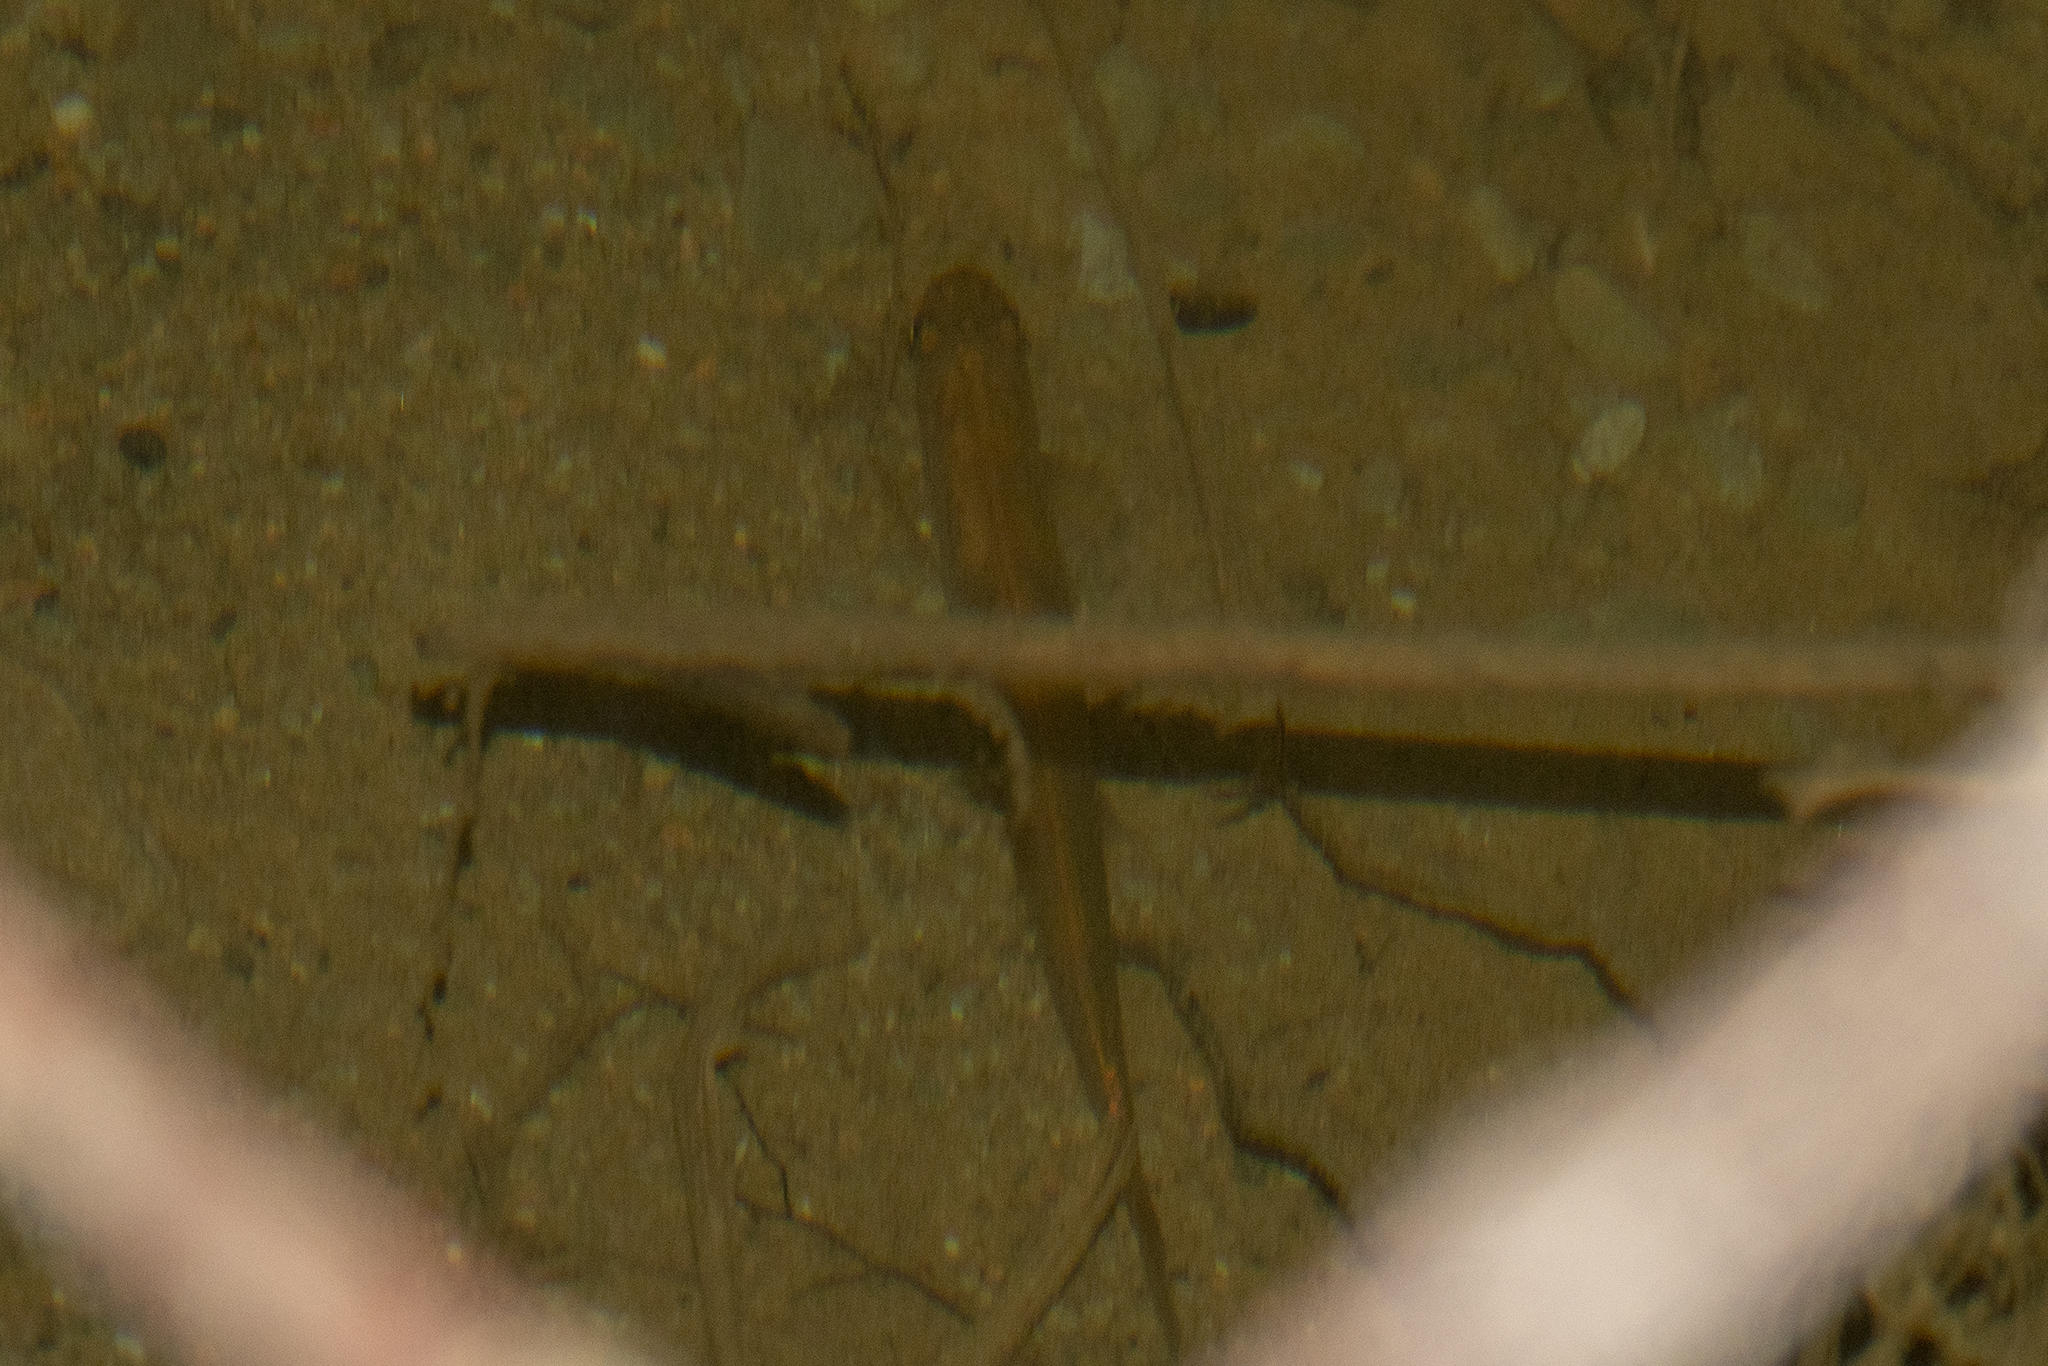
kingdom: Animalia
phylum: Chordata
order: Osmeriformes
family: Galaxiidae
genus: Galaxias
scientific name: Galaxias maculatus
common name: Common galaxias
